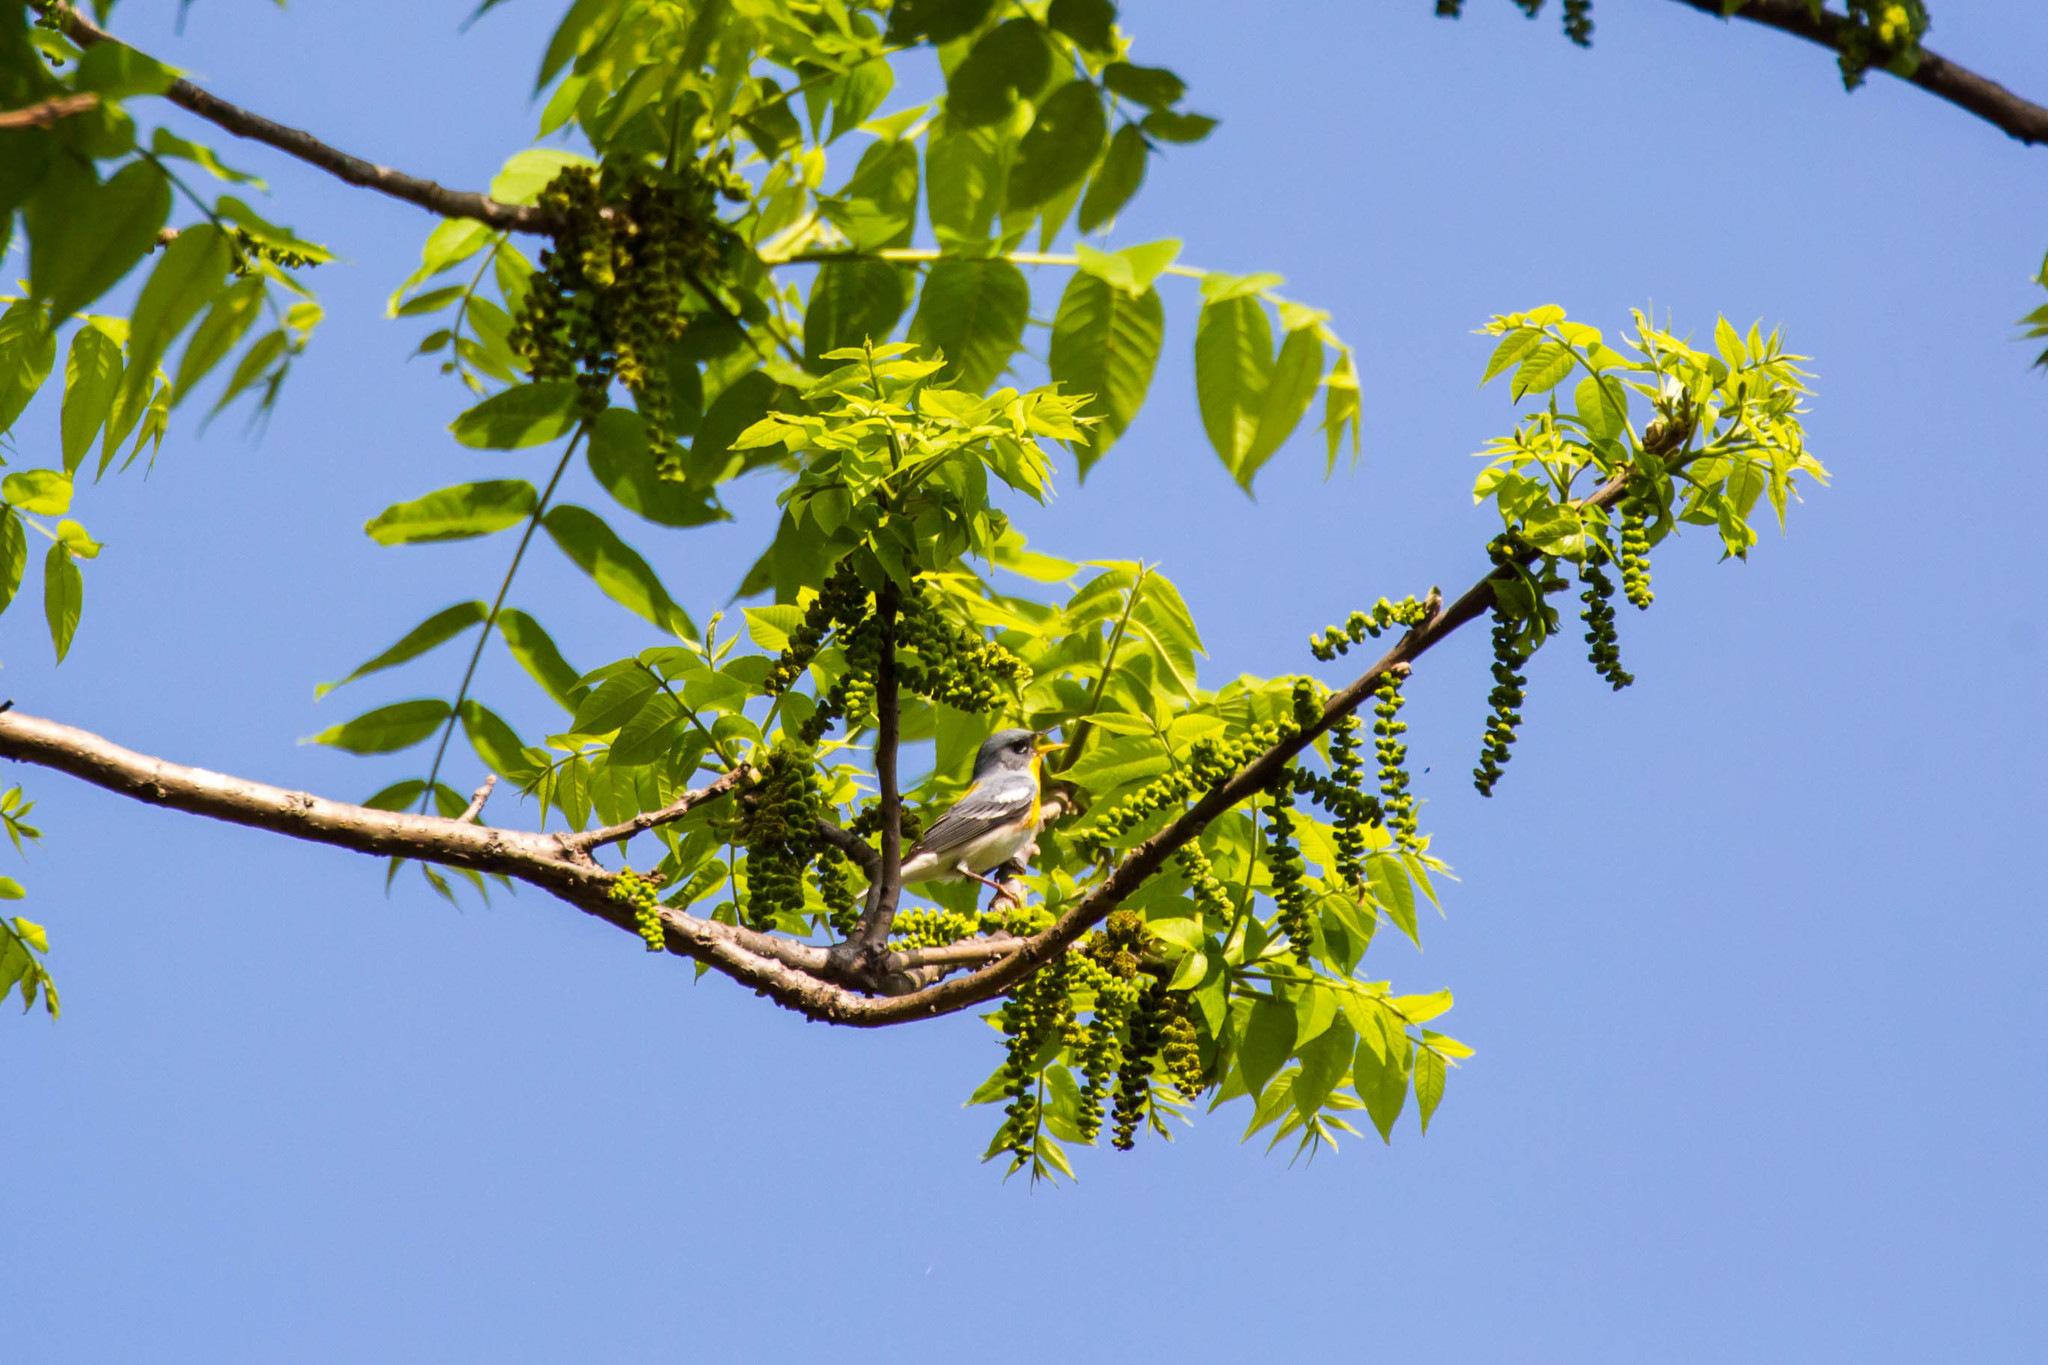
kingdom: Animalia
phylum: Chordata
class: Aves
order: Passeriformes
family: Parulidae
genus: Setophaga
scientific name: Setophaga americana
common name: Northern parula
